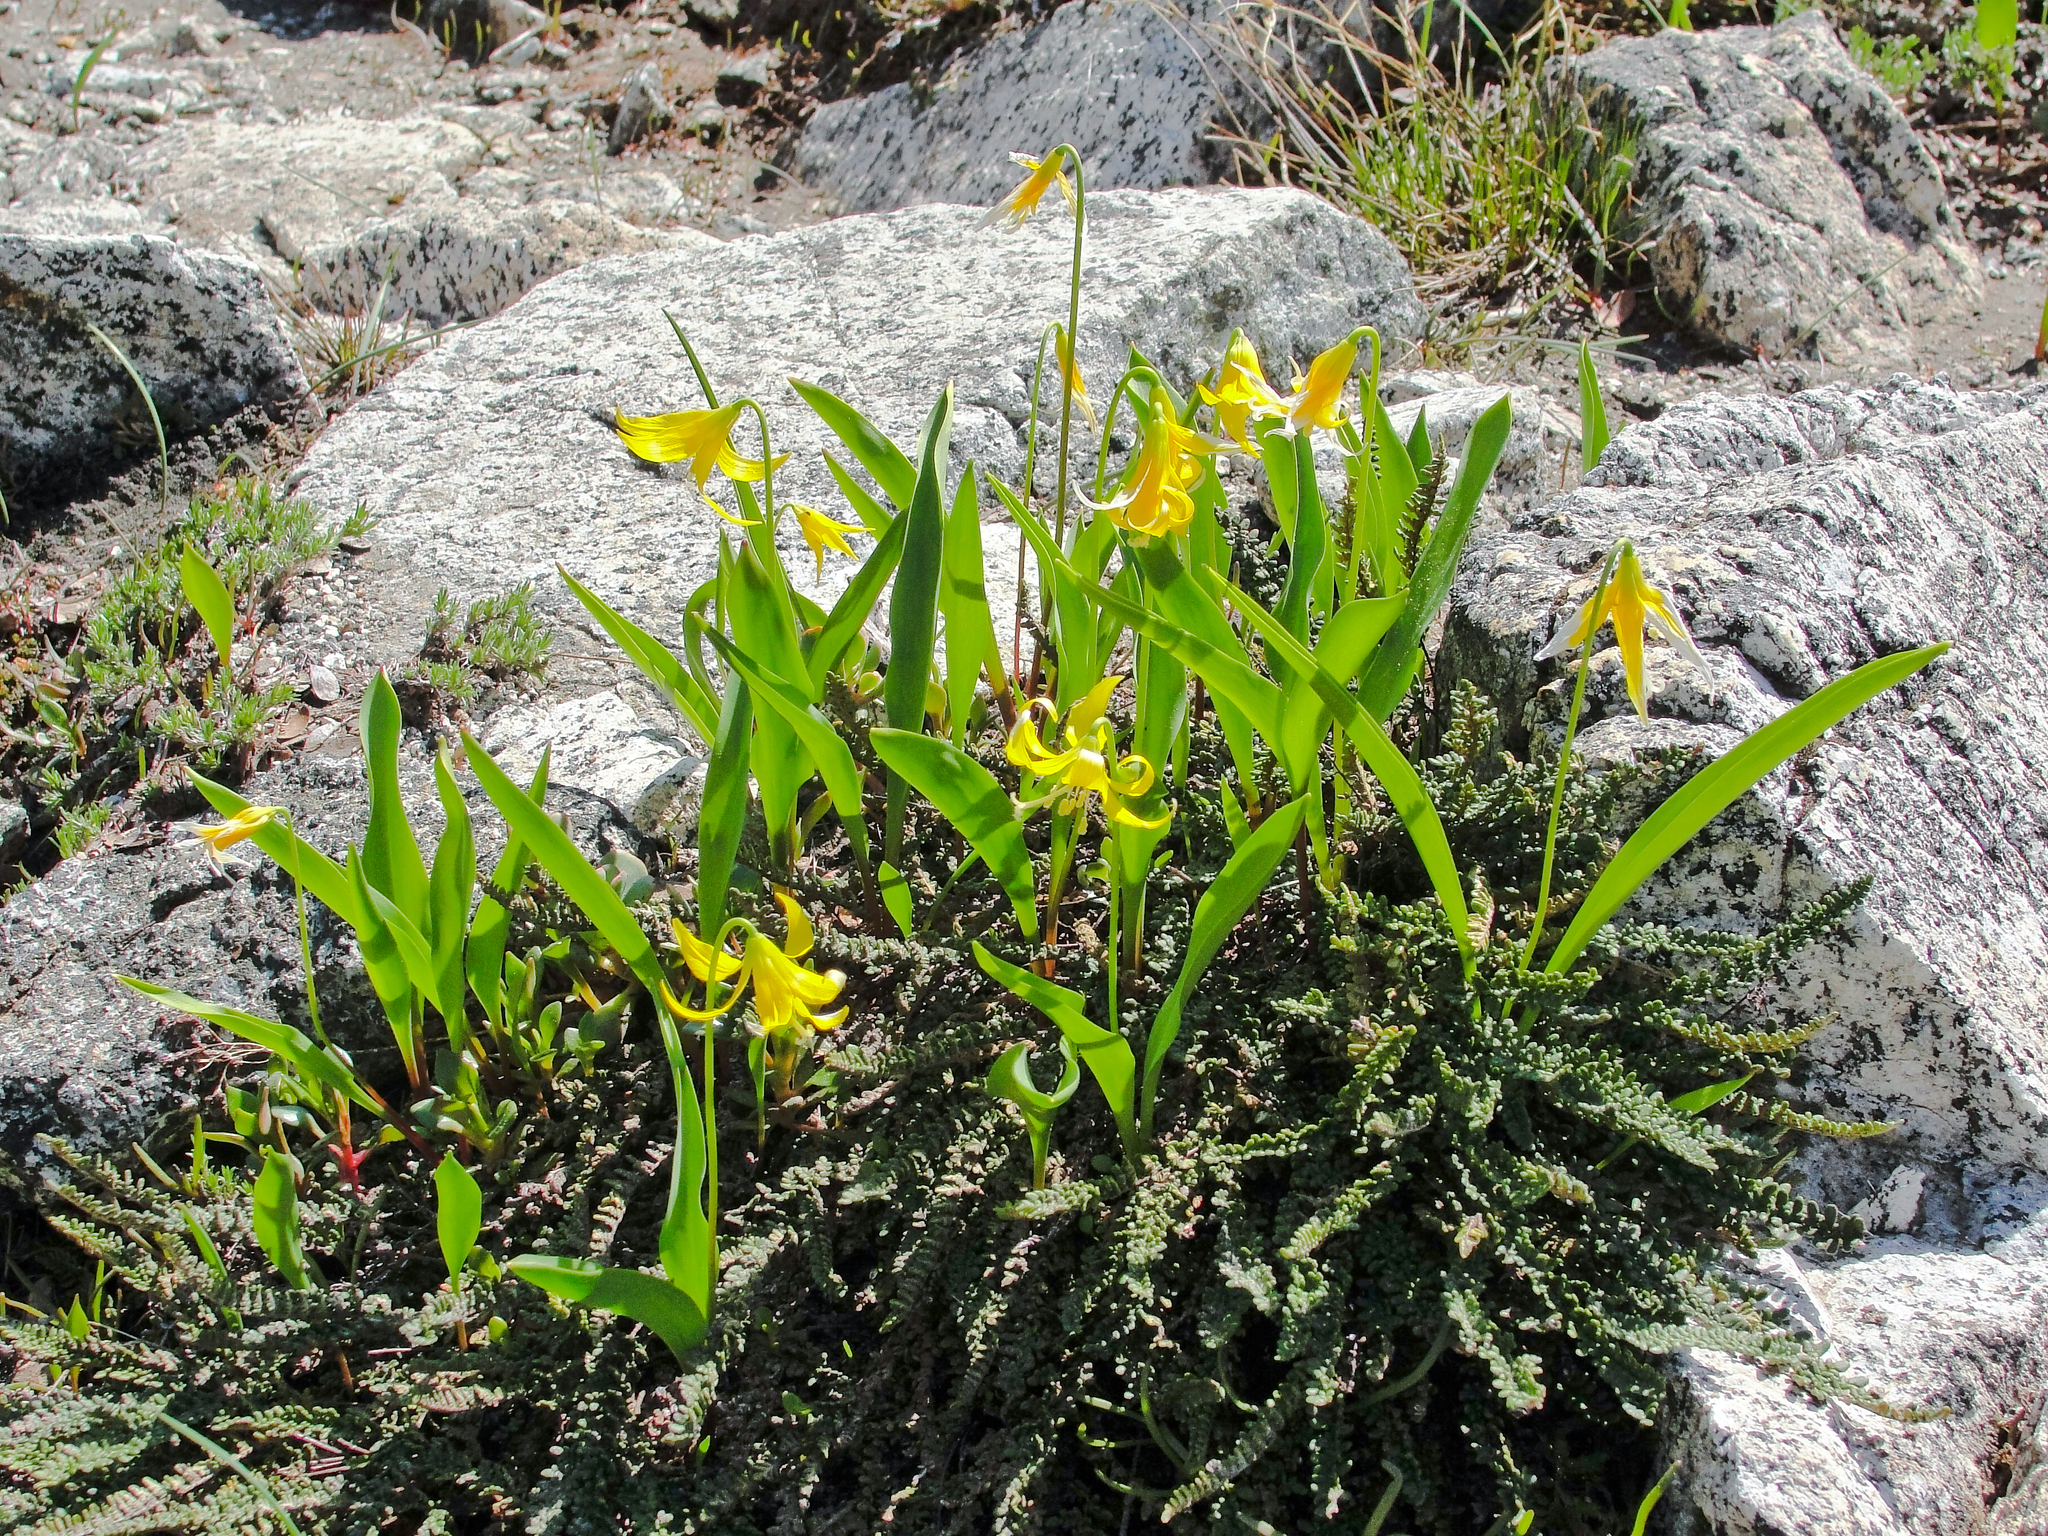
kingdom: Plantae
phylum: Tracheophyta
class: Liliopsida
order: Liliales
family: Liliaceae
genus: Erythronium
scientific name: Erythronium grandiflorum
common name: Avalanche-lily
